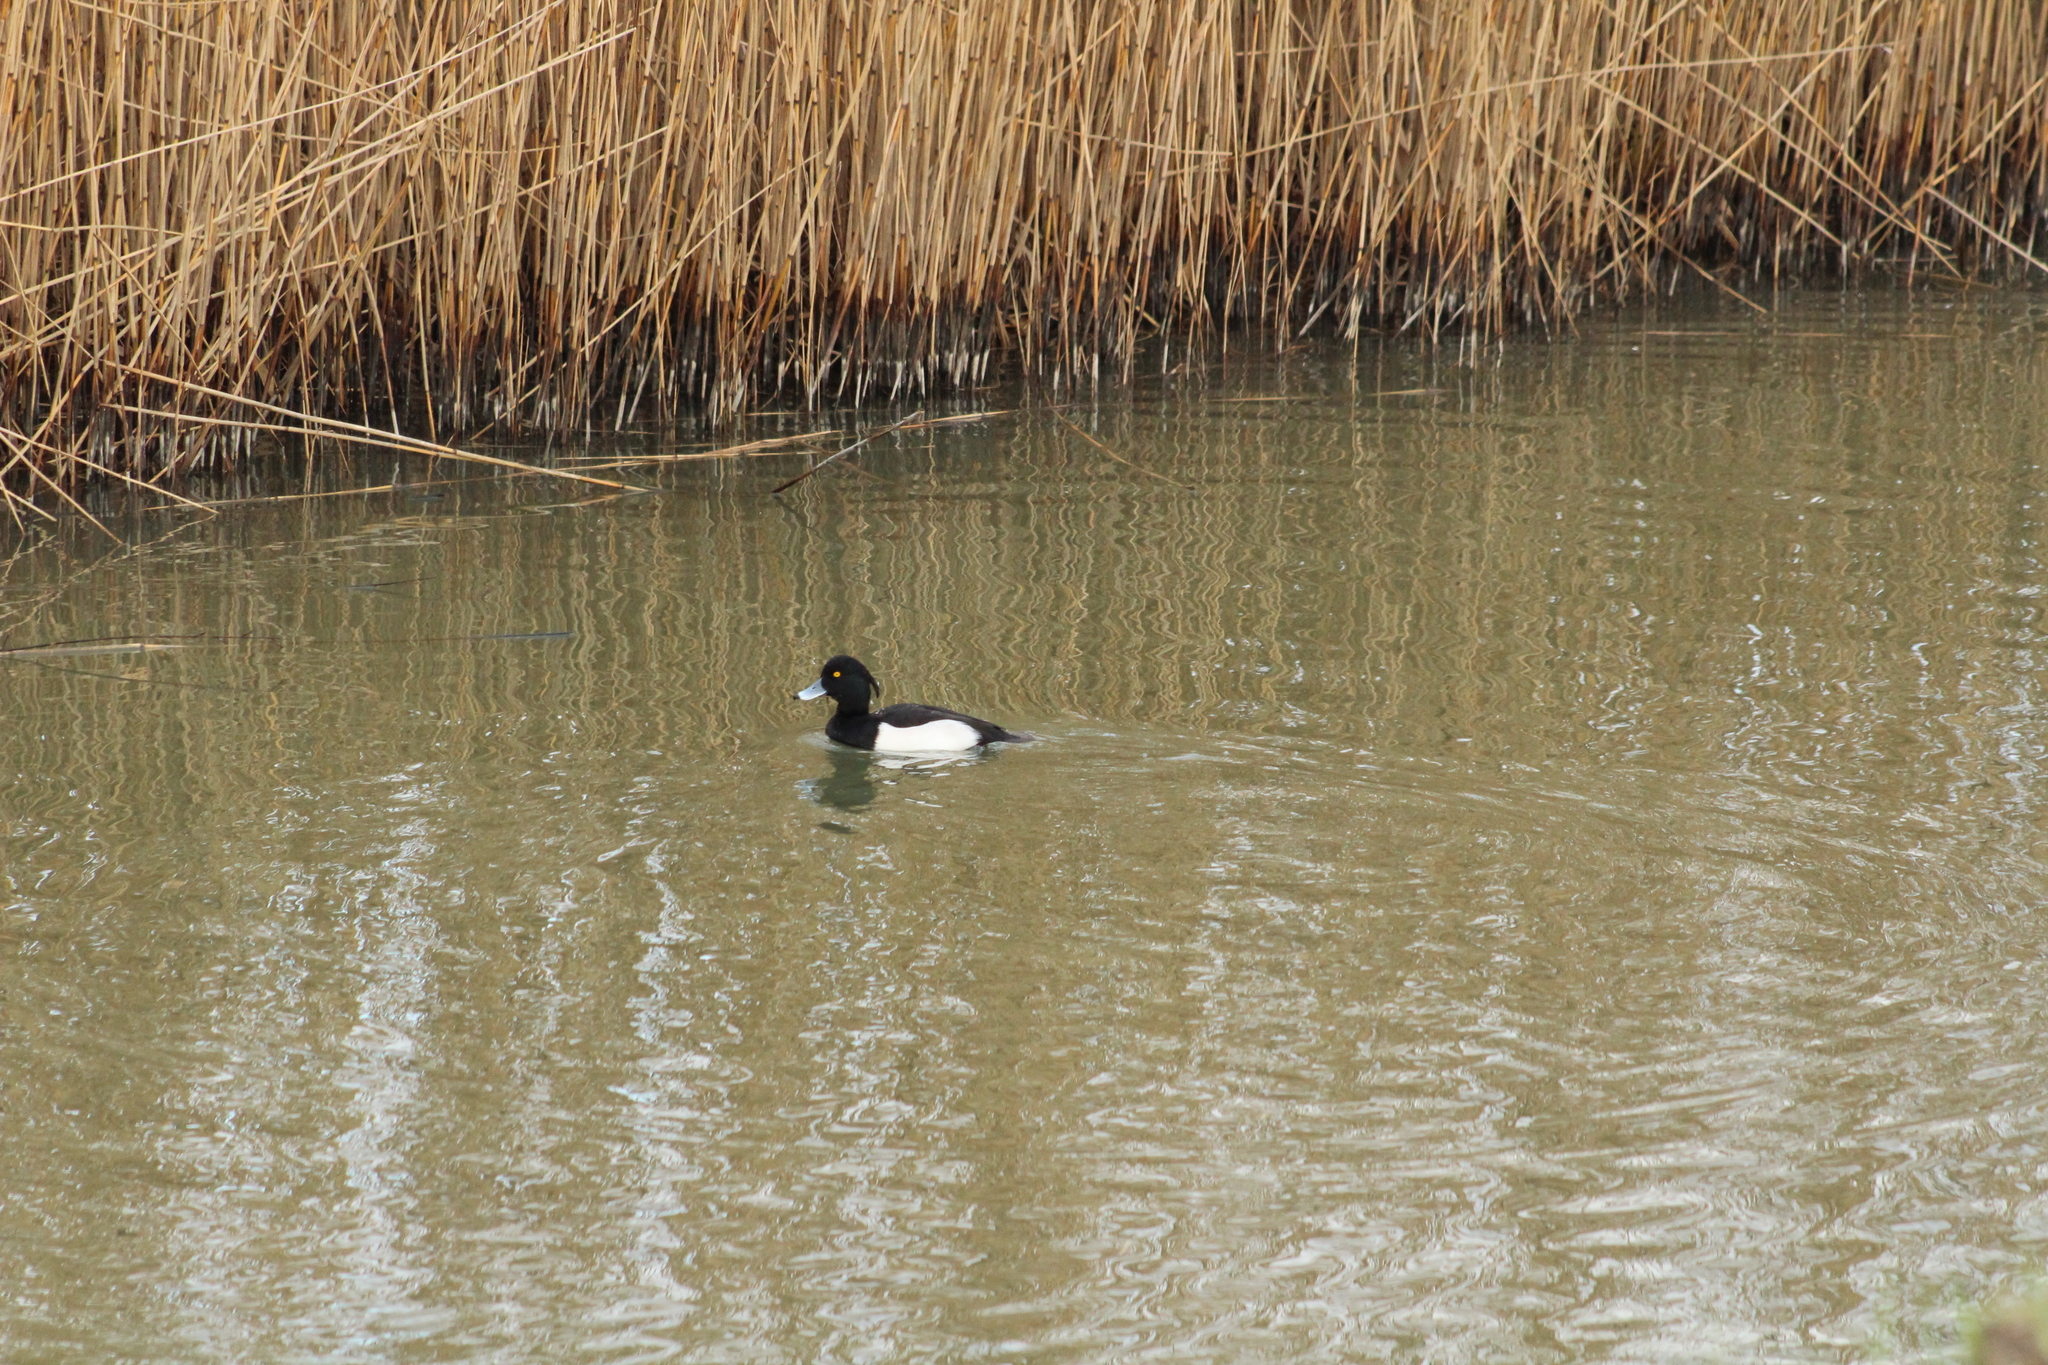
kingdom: Animalia
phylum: Chordata
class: Aves
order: Anseriformes
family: Anatidae
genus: Aythya
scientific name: Aythya fuligula
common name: Tufted duck
